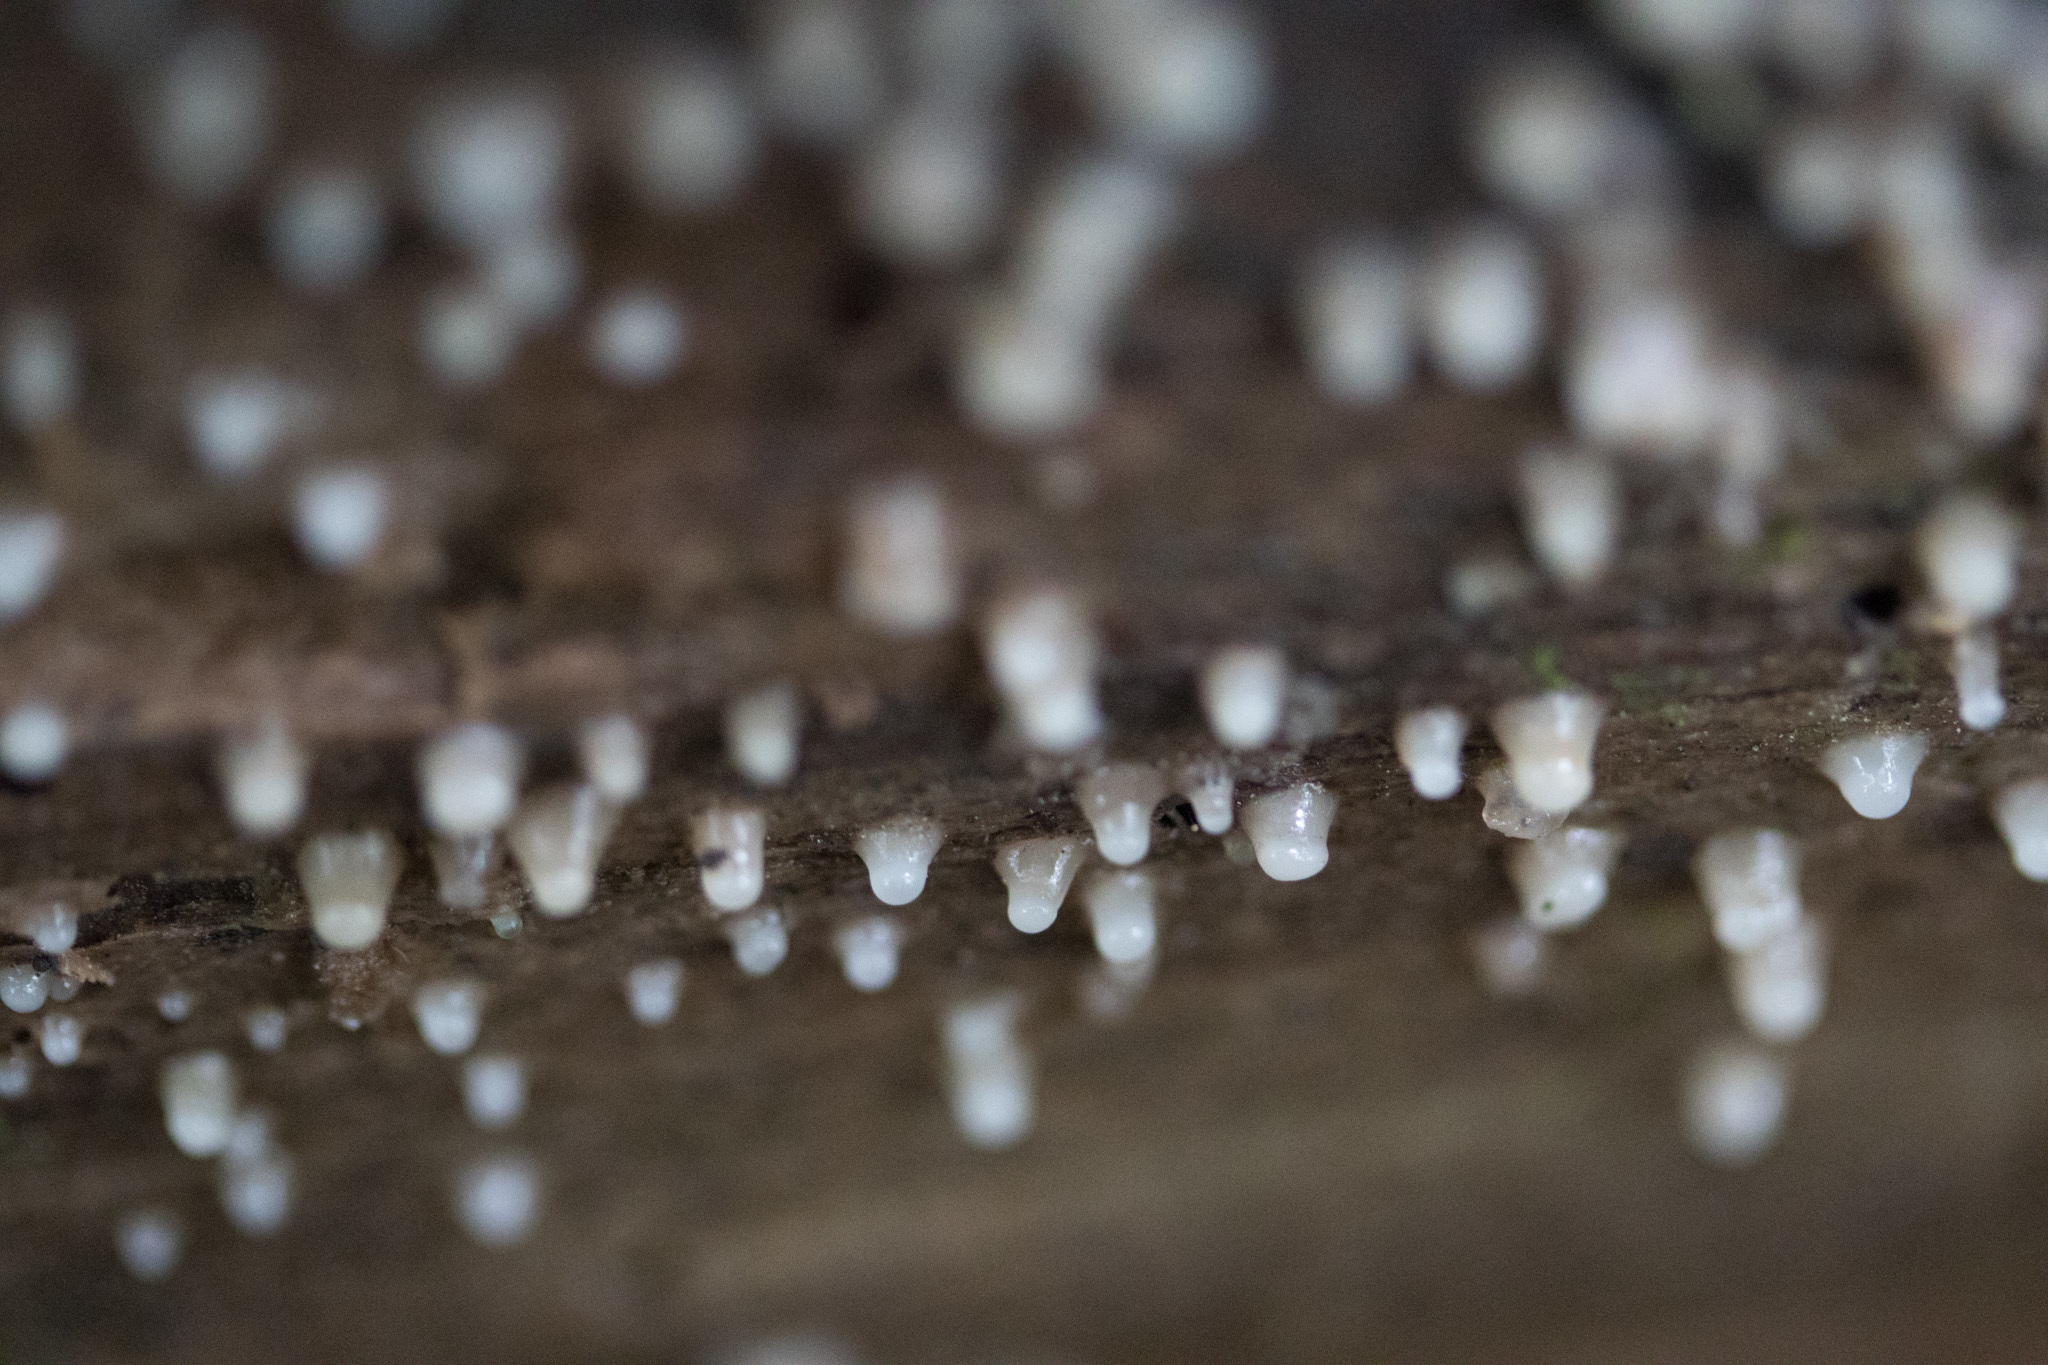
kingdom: Fungi
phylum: Basidiomycota
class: Atractiellomycetes
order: Atractiellales
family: Phleogenaceae
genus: Helicogloea
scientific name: Helicogloea compressa
